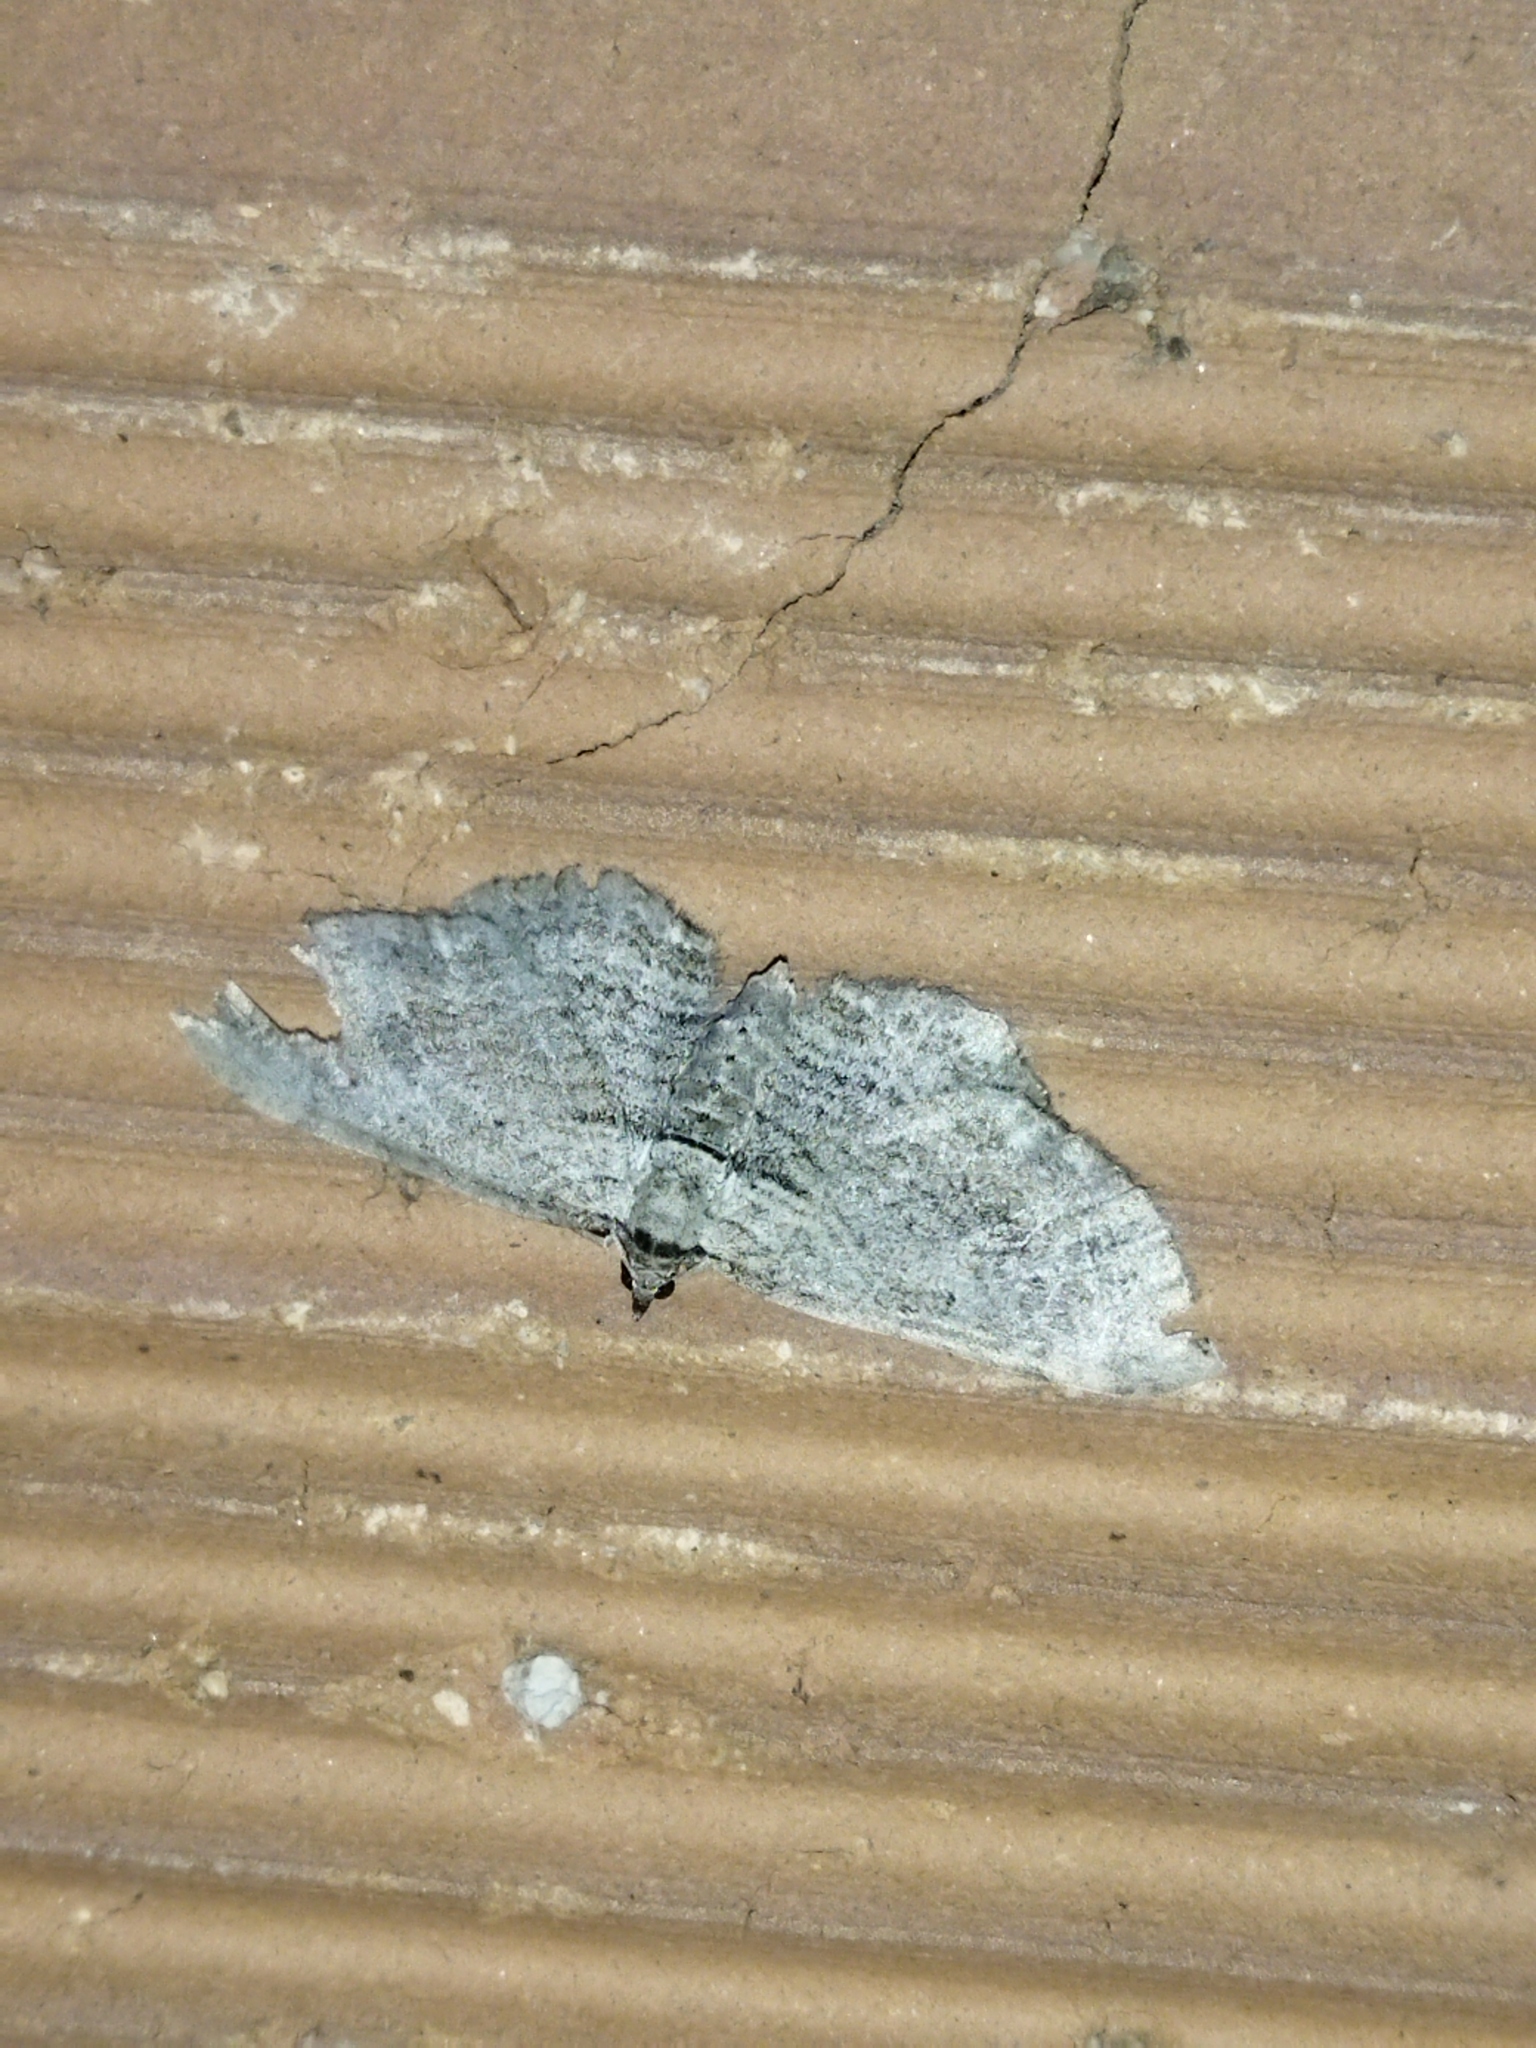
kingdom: Animalia
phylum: Arthropoda
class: Insecta
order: Lepidoptera
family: Geometridae
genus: Horisme
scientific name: Horisme
